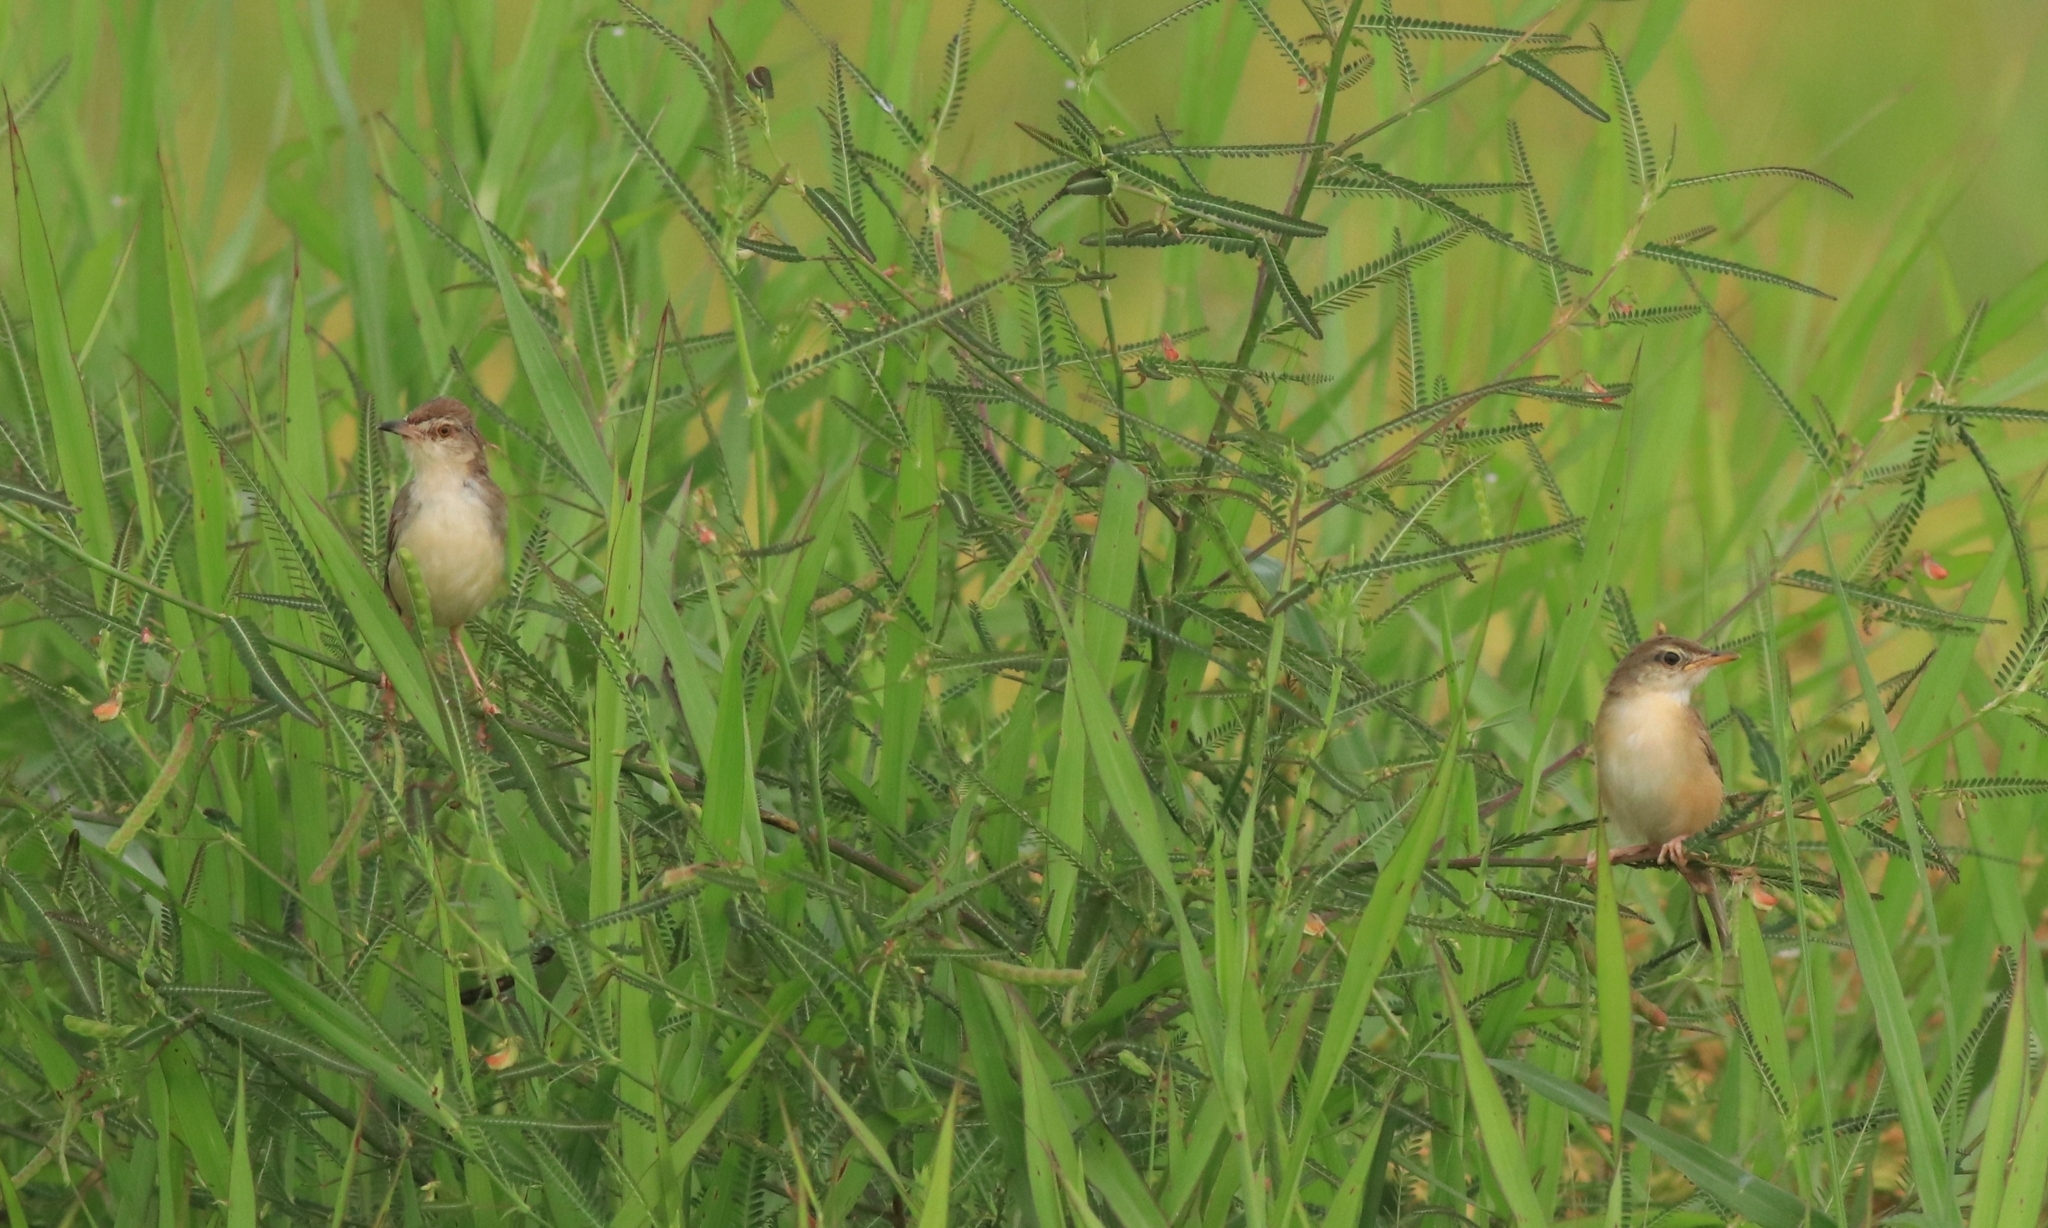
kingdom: Animalia
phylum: Chordata
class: Aves
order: Passeriformes
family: Cisticolidae
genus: Prinia
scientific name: Prinia inornata
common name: Plain prinia
